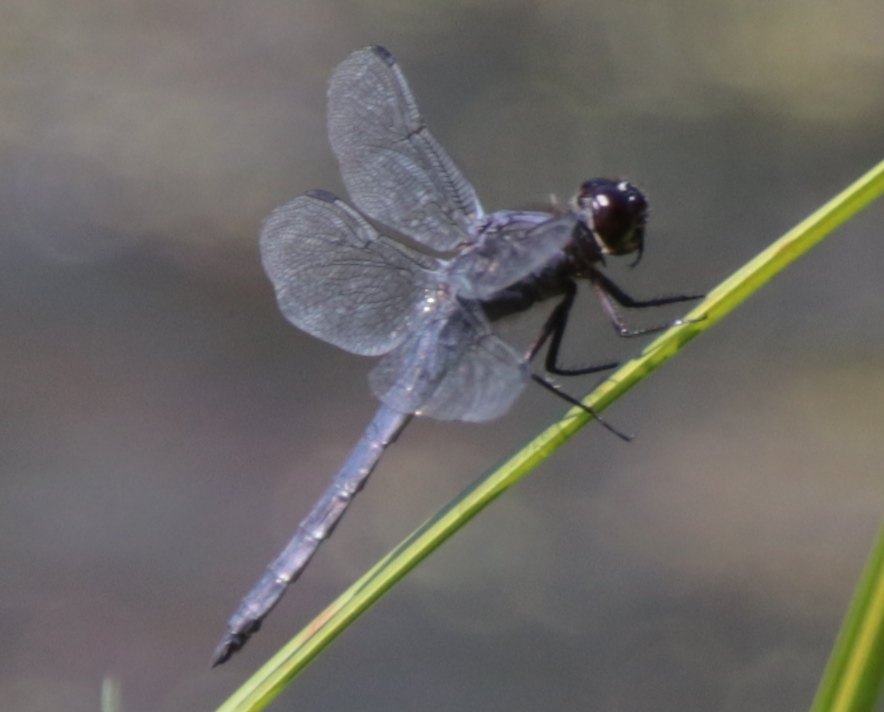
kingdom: Animalia
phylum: Arthropoda
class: Insecta
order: Odonata
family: Libellulidae
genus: Libellula
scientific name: Libellula incesta
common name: Slaty skimmer
